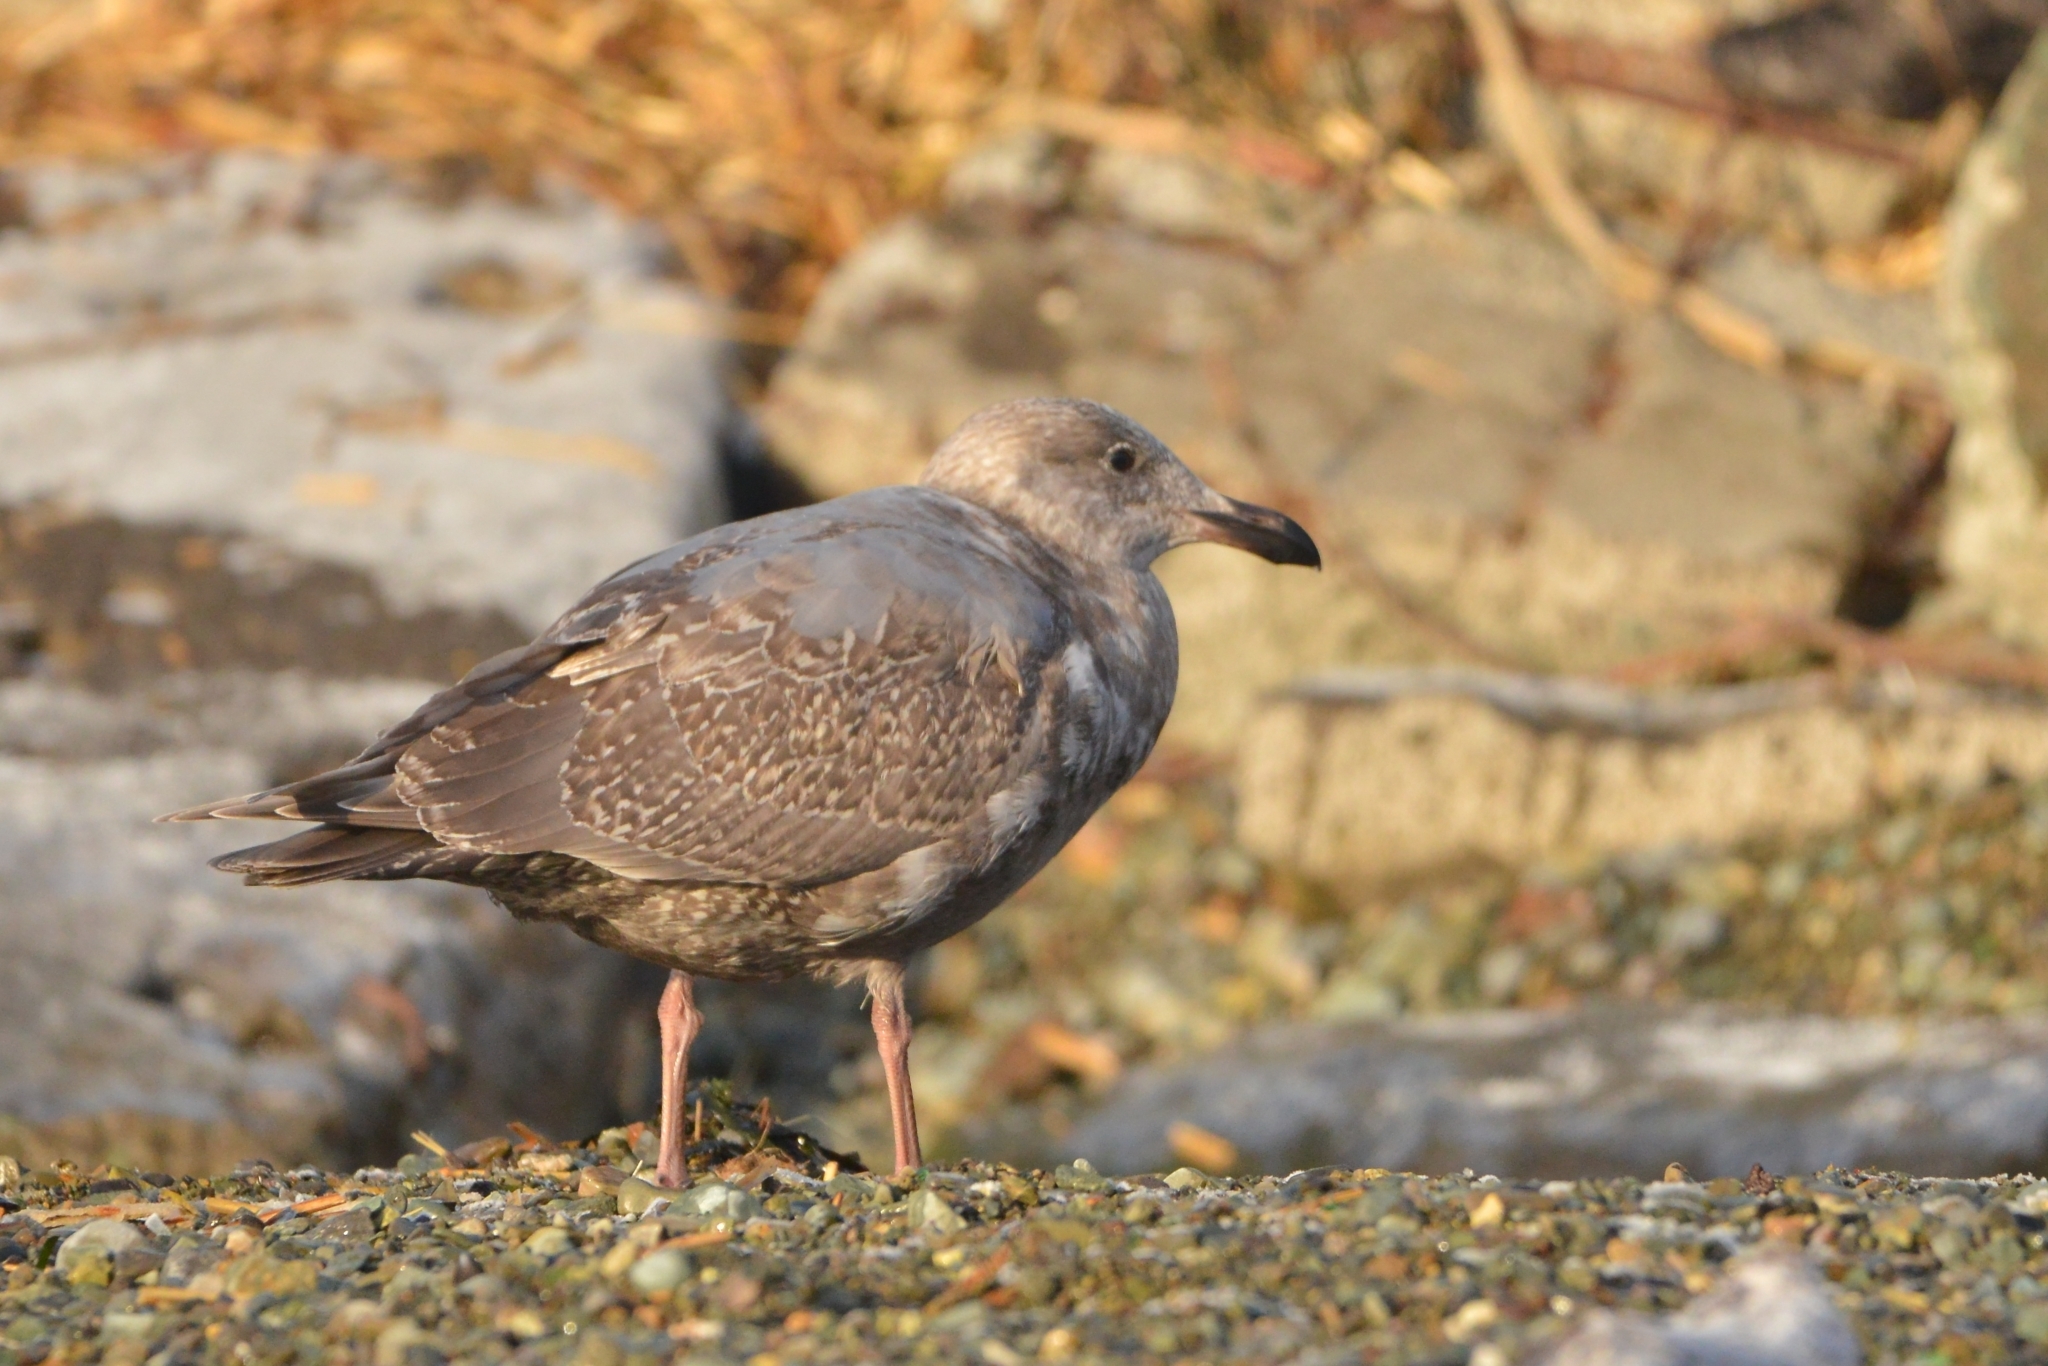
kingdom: Animalia
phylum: Chordata
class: Aves
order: Charadriiformes
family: Laridae
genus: Larus
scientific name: Larus glaucescens
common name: Glaucous-winged gull
